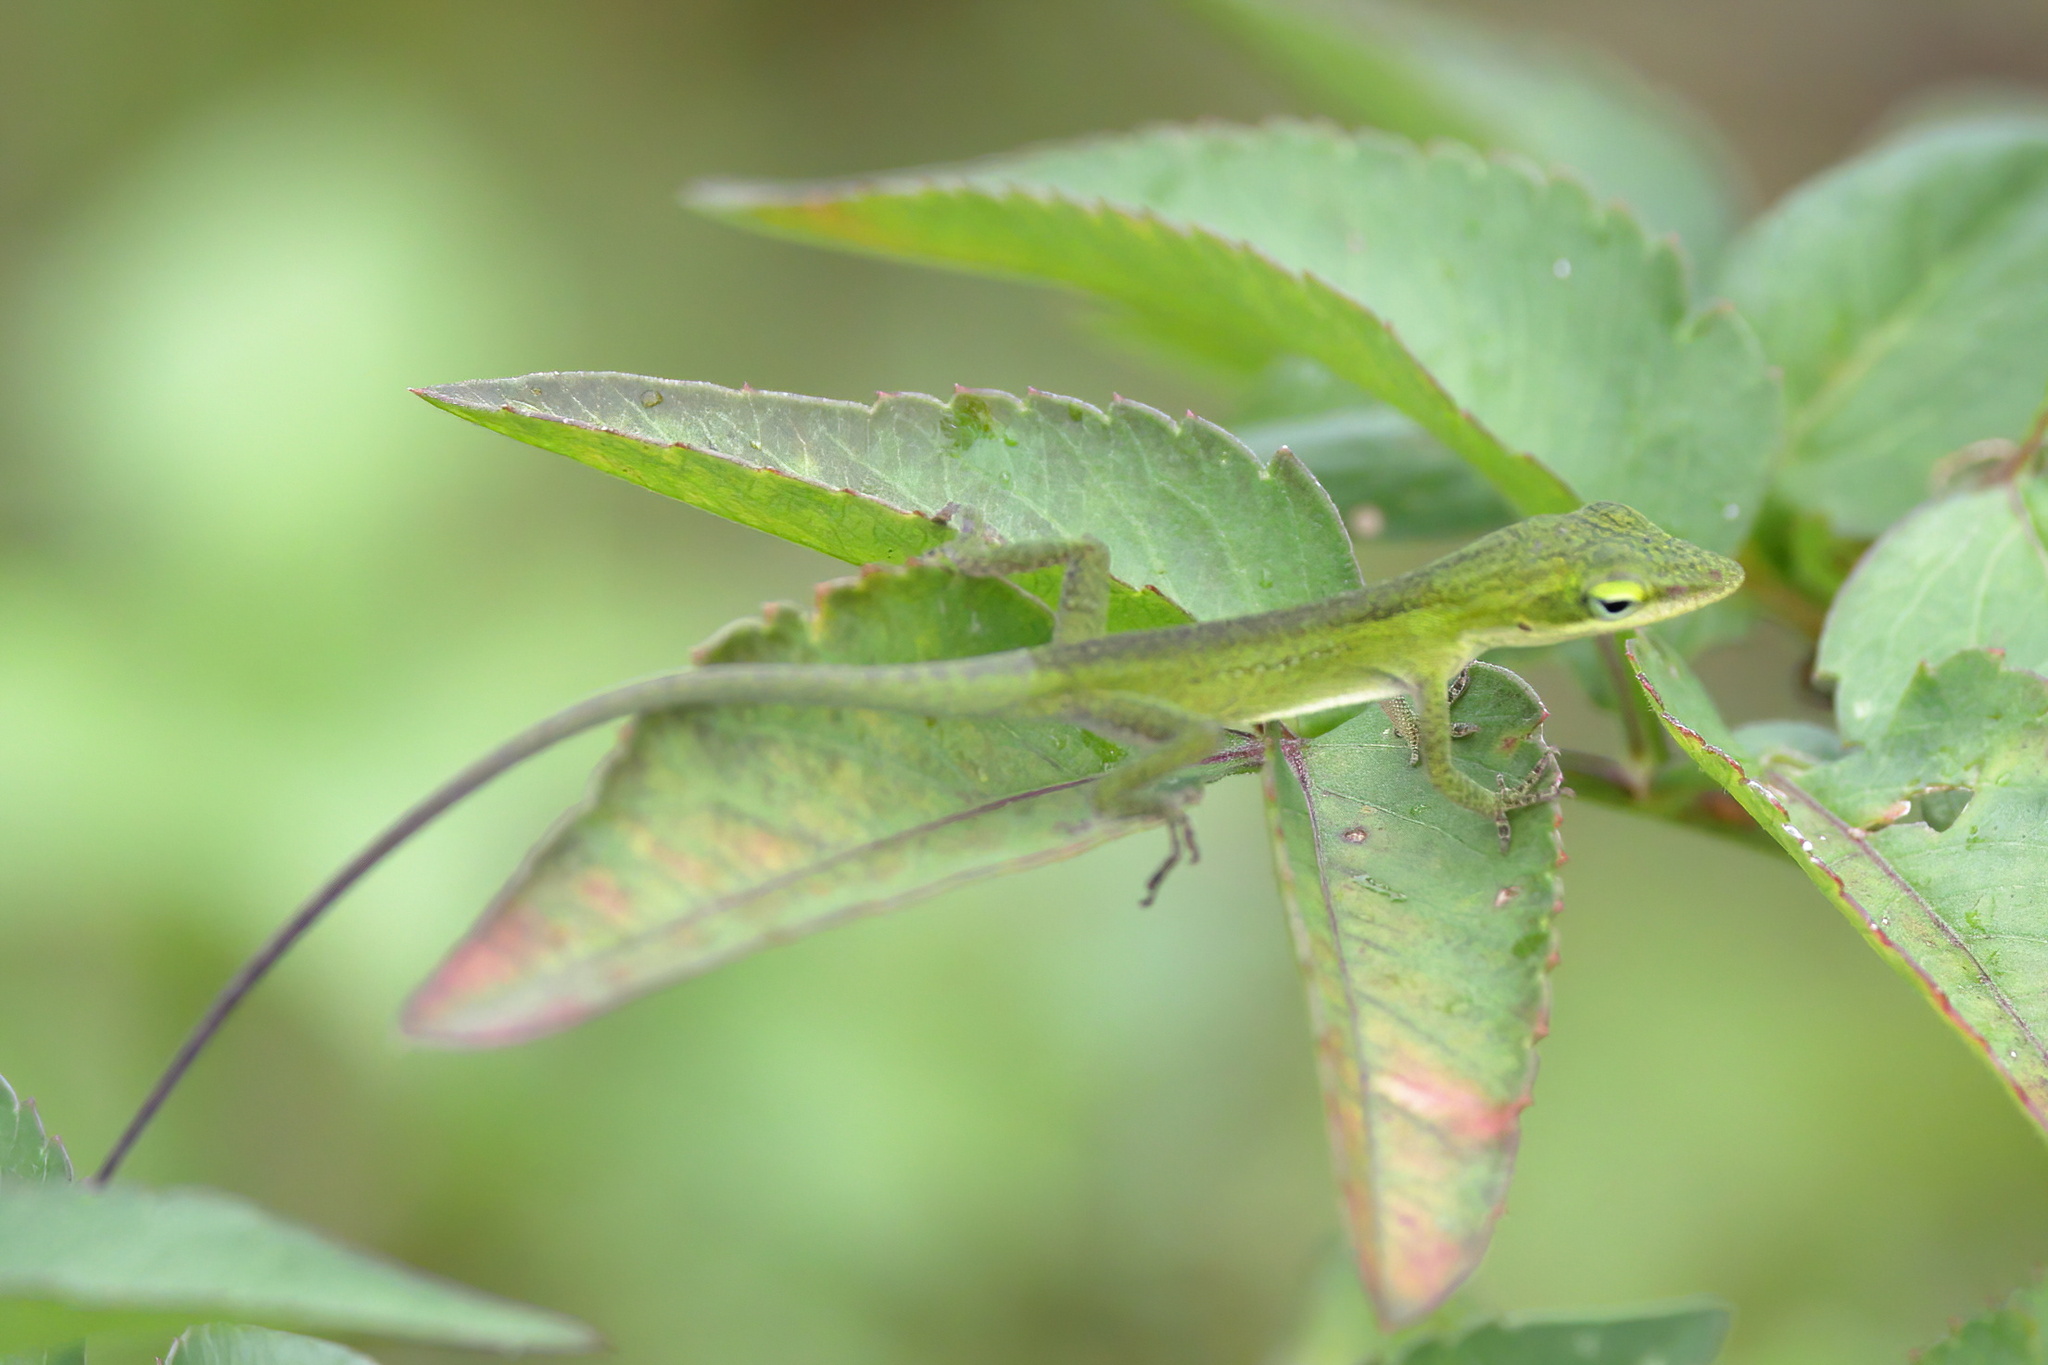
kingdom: Animalia
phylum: Chordata
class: Squamata
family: Dactyloidae
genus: Anolis
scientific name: Anolis carolinensis
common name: Green anole
